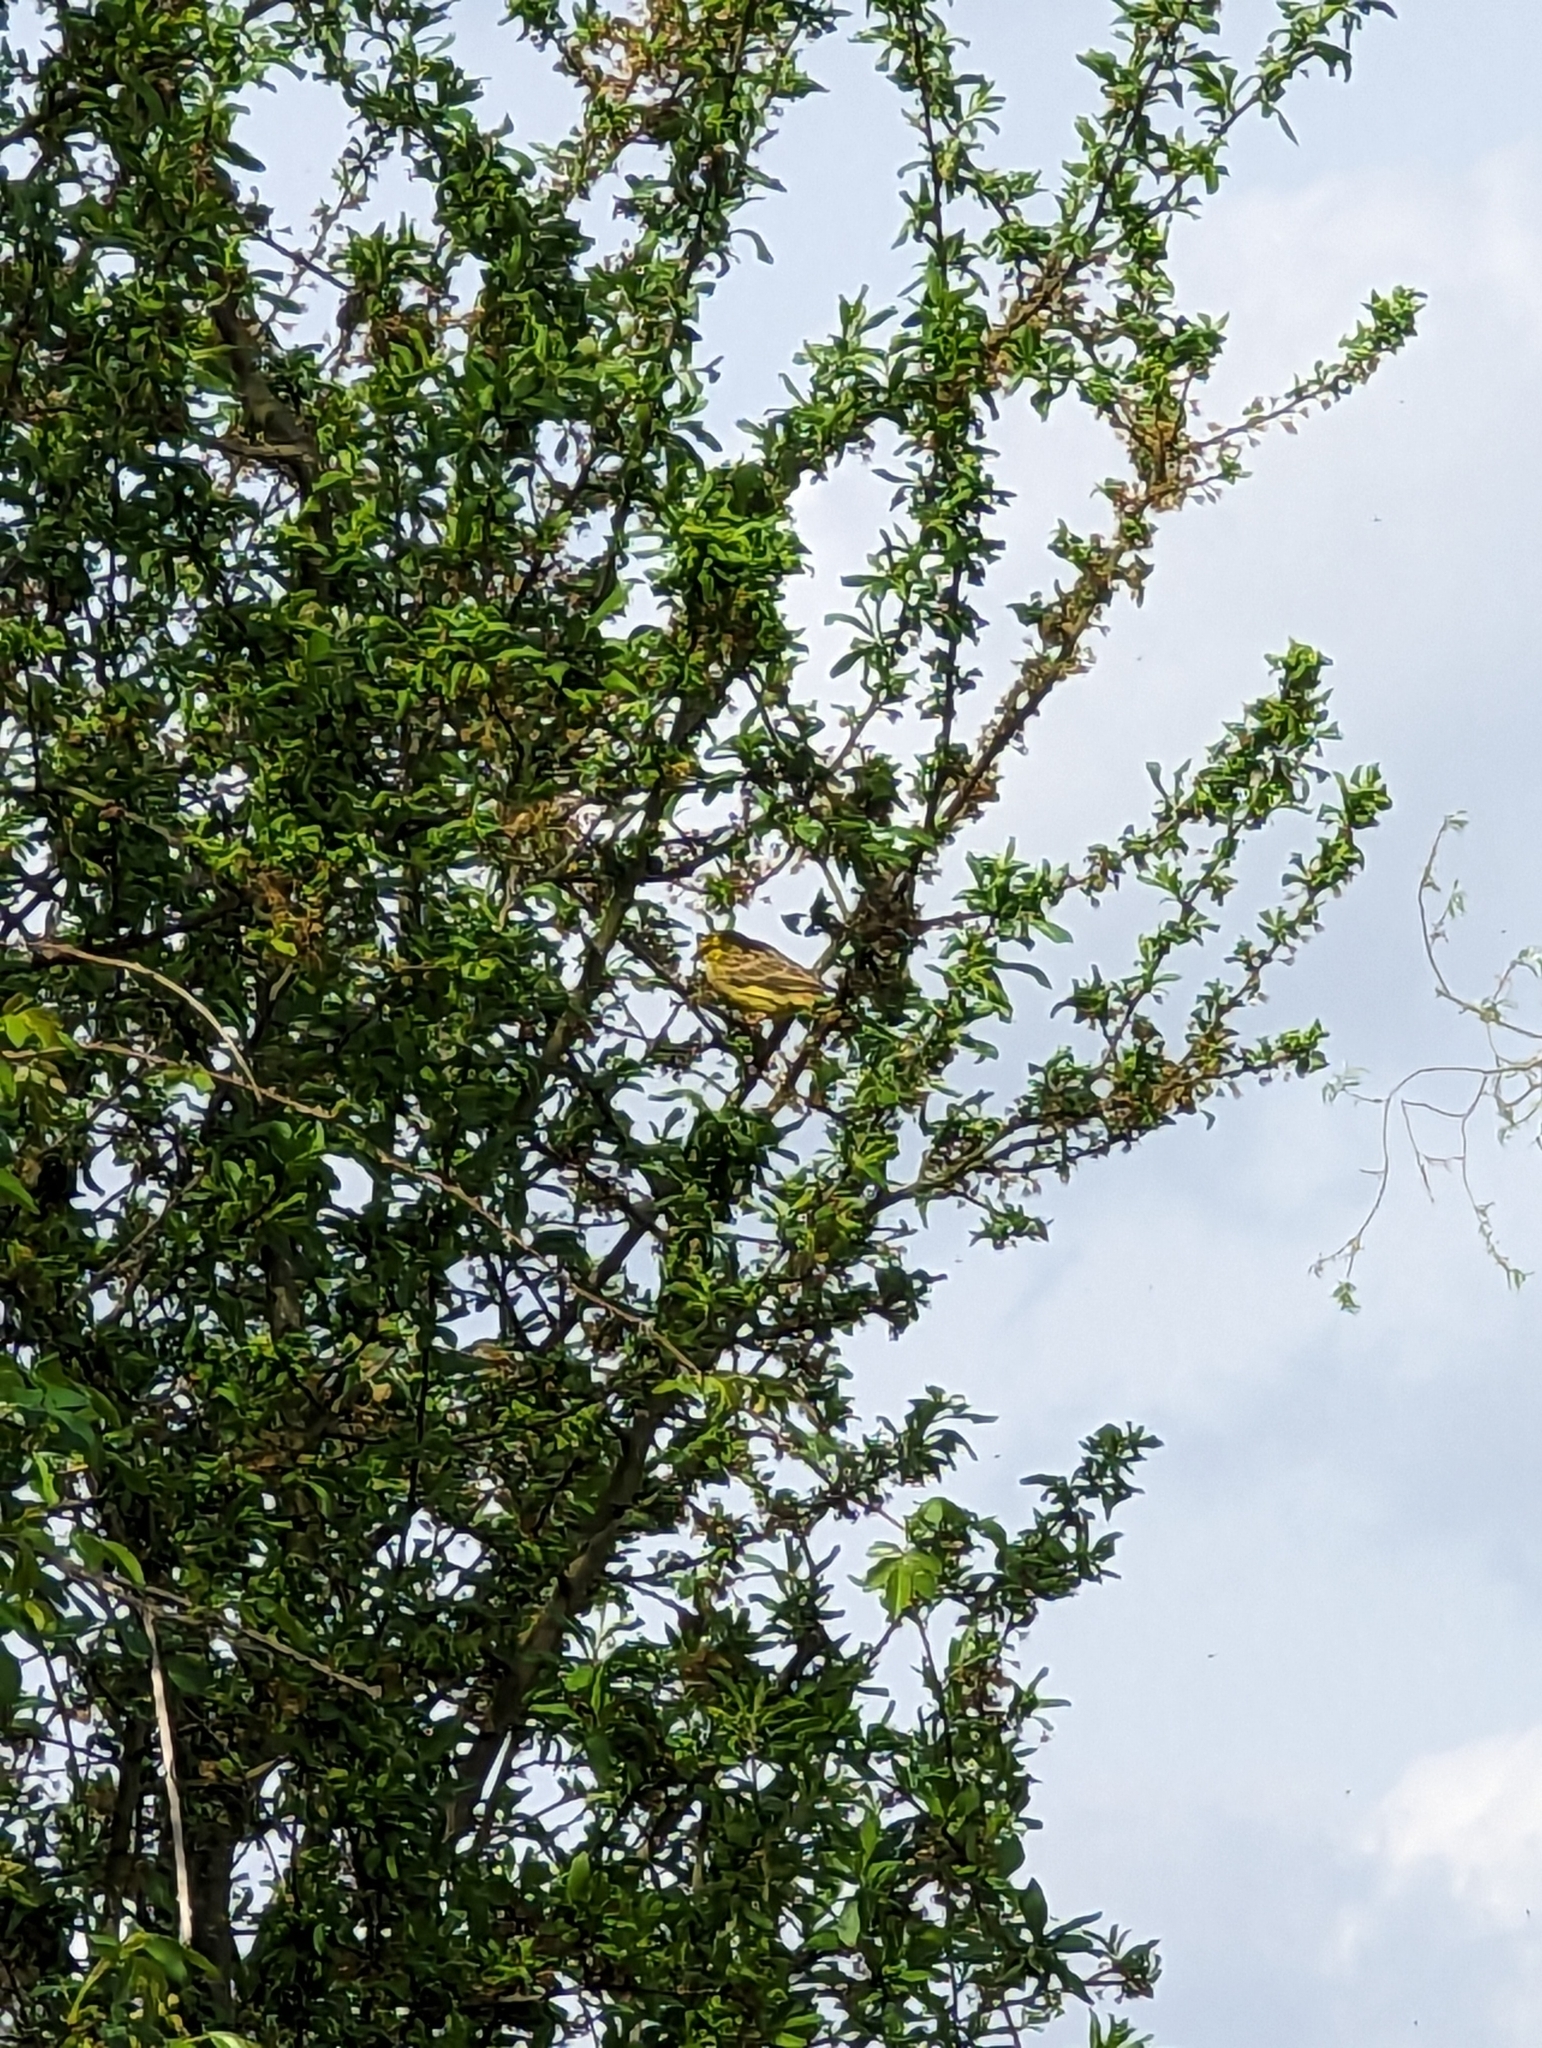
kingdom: Animalia
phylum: Chordata
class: Aves
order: Passeriformes
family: Emberizidae
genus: Emberiza
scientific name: Emberiza citrinella
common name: Yellowhammer
